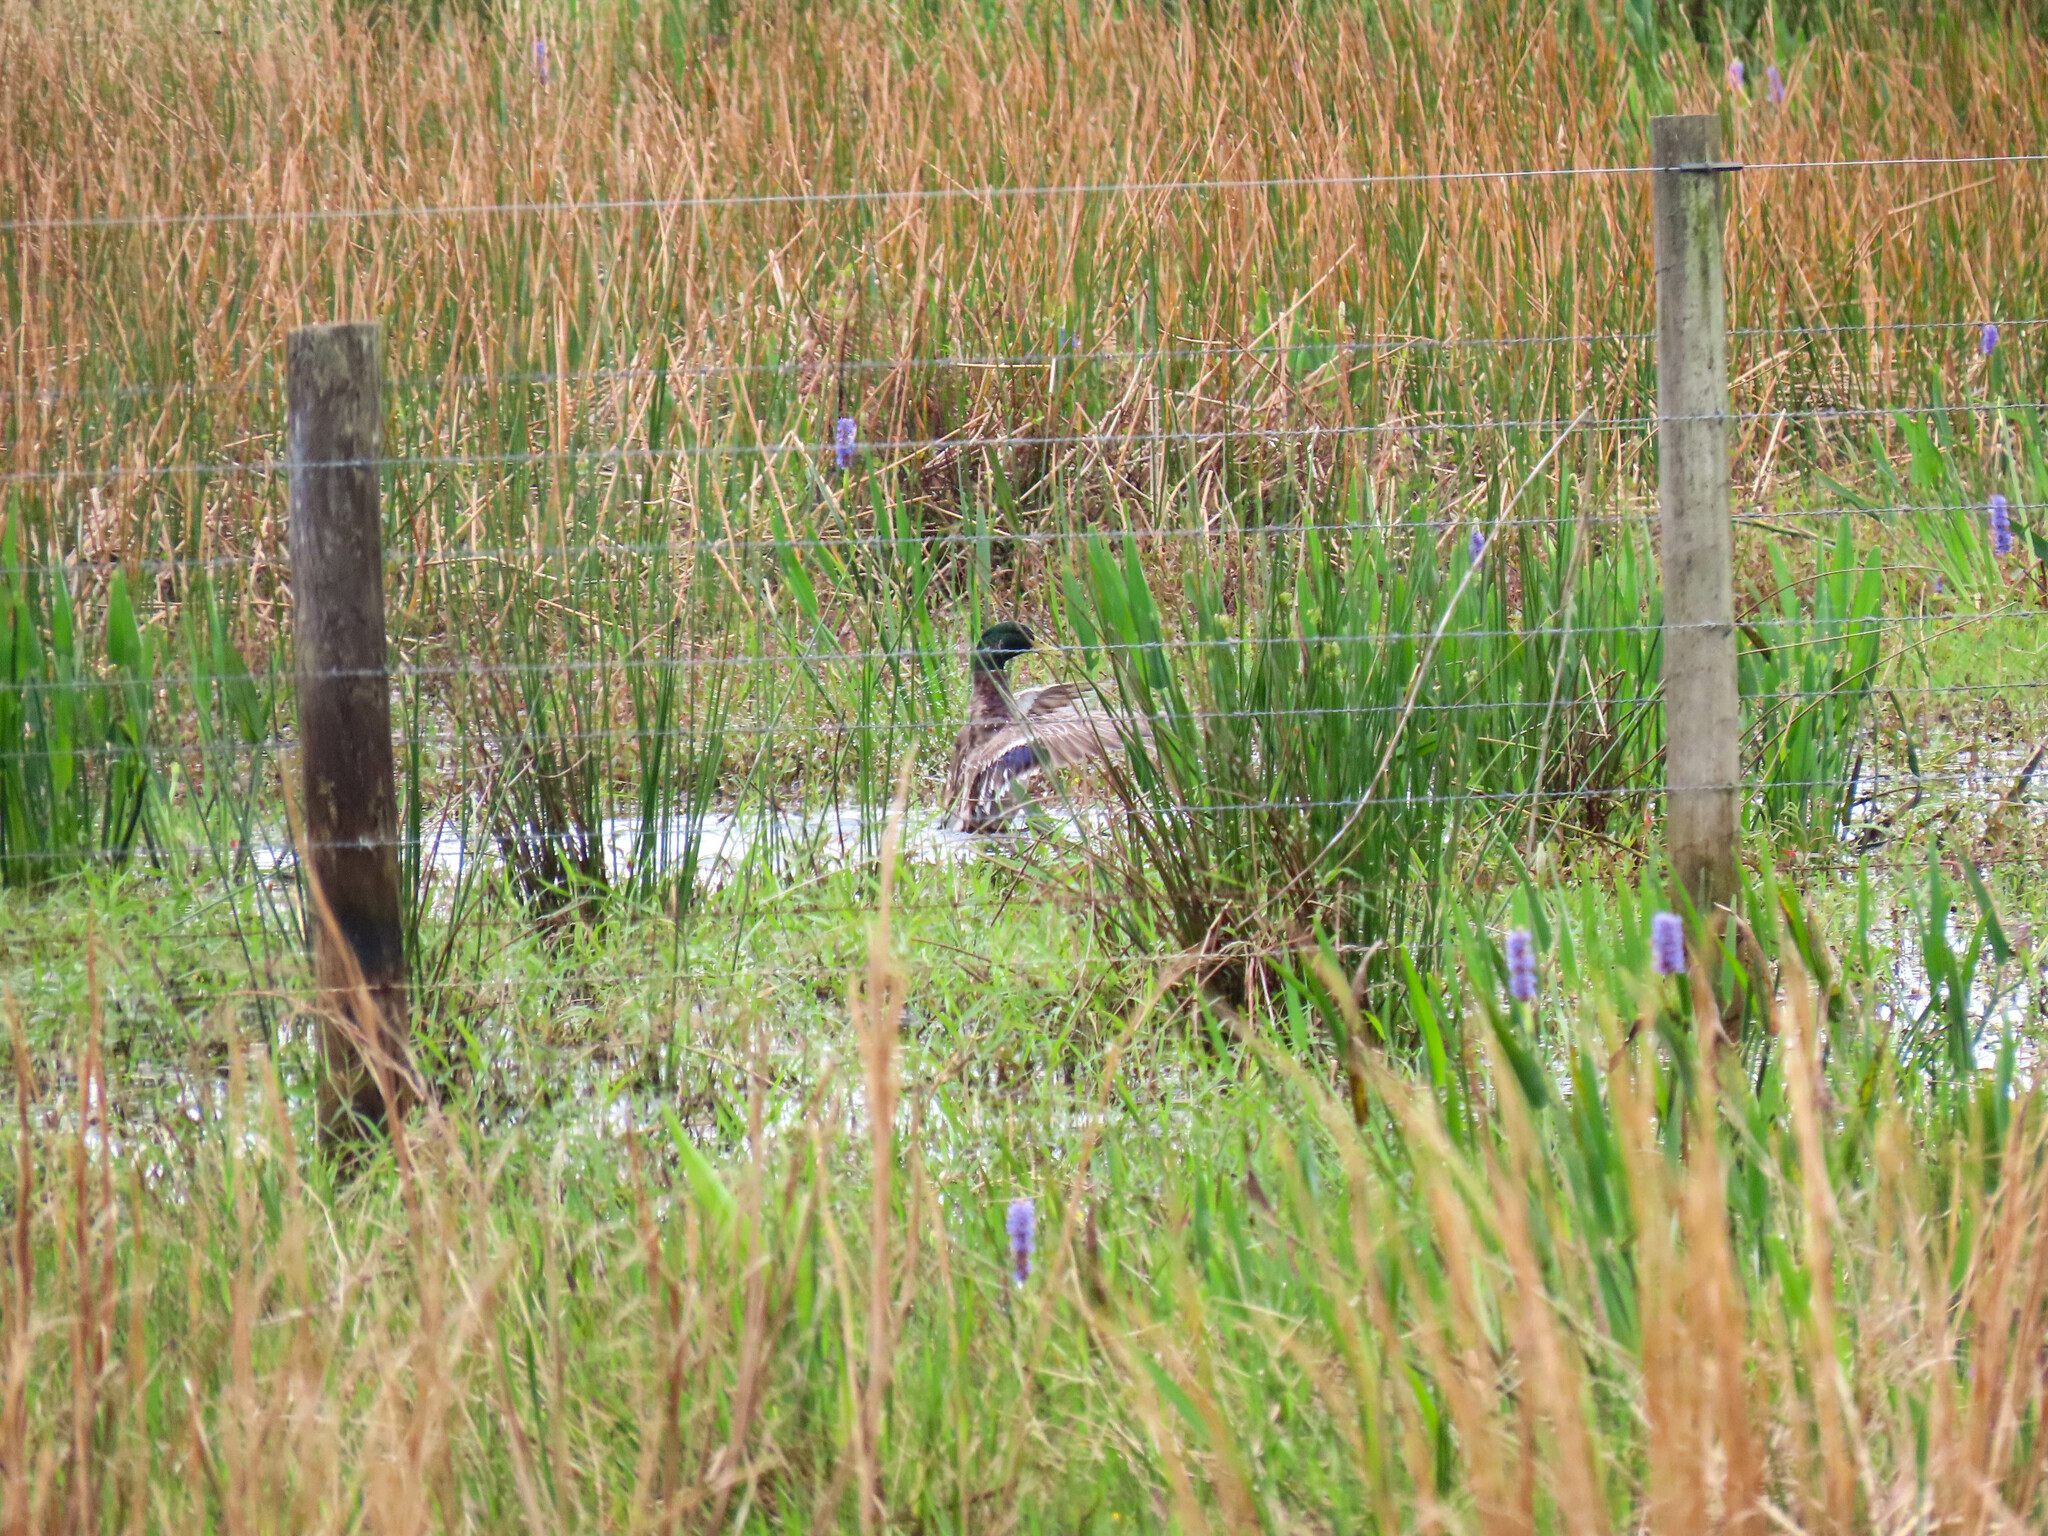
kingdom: Animalia
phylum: Chordata
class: Aves
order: Anseriformes
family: Anatidae
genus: Anas
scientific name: Anas platyrhynchos
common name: Mallard
